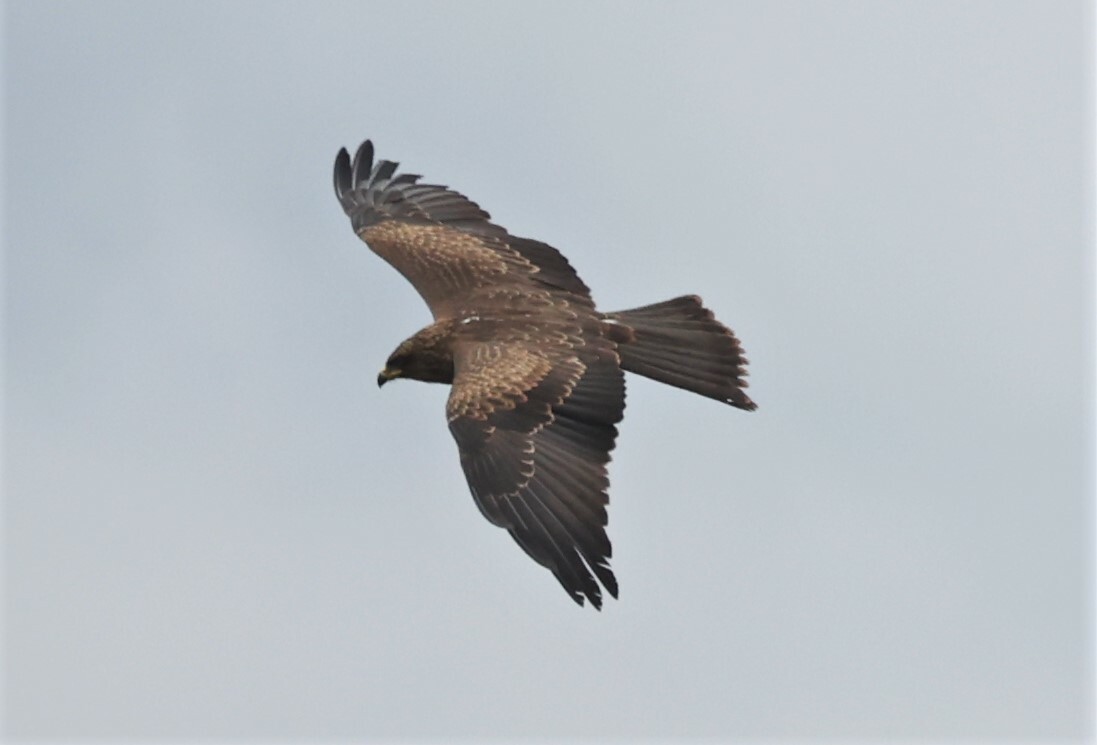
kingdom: Animalia
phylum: Chordata
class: Aves
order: Accipitriformes
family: Accipitridae
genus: Milvus
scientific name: Milvus migrans
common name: Black kite
